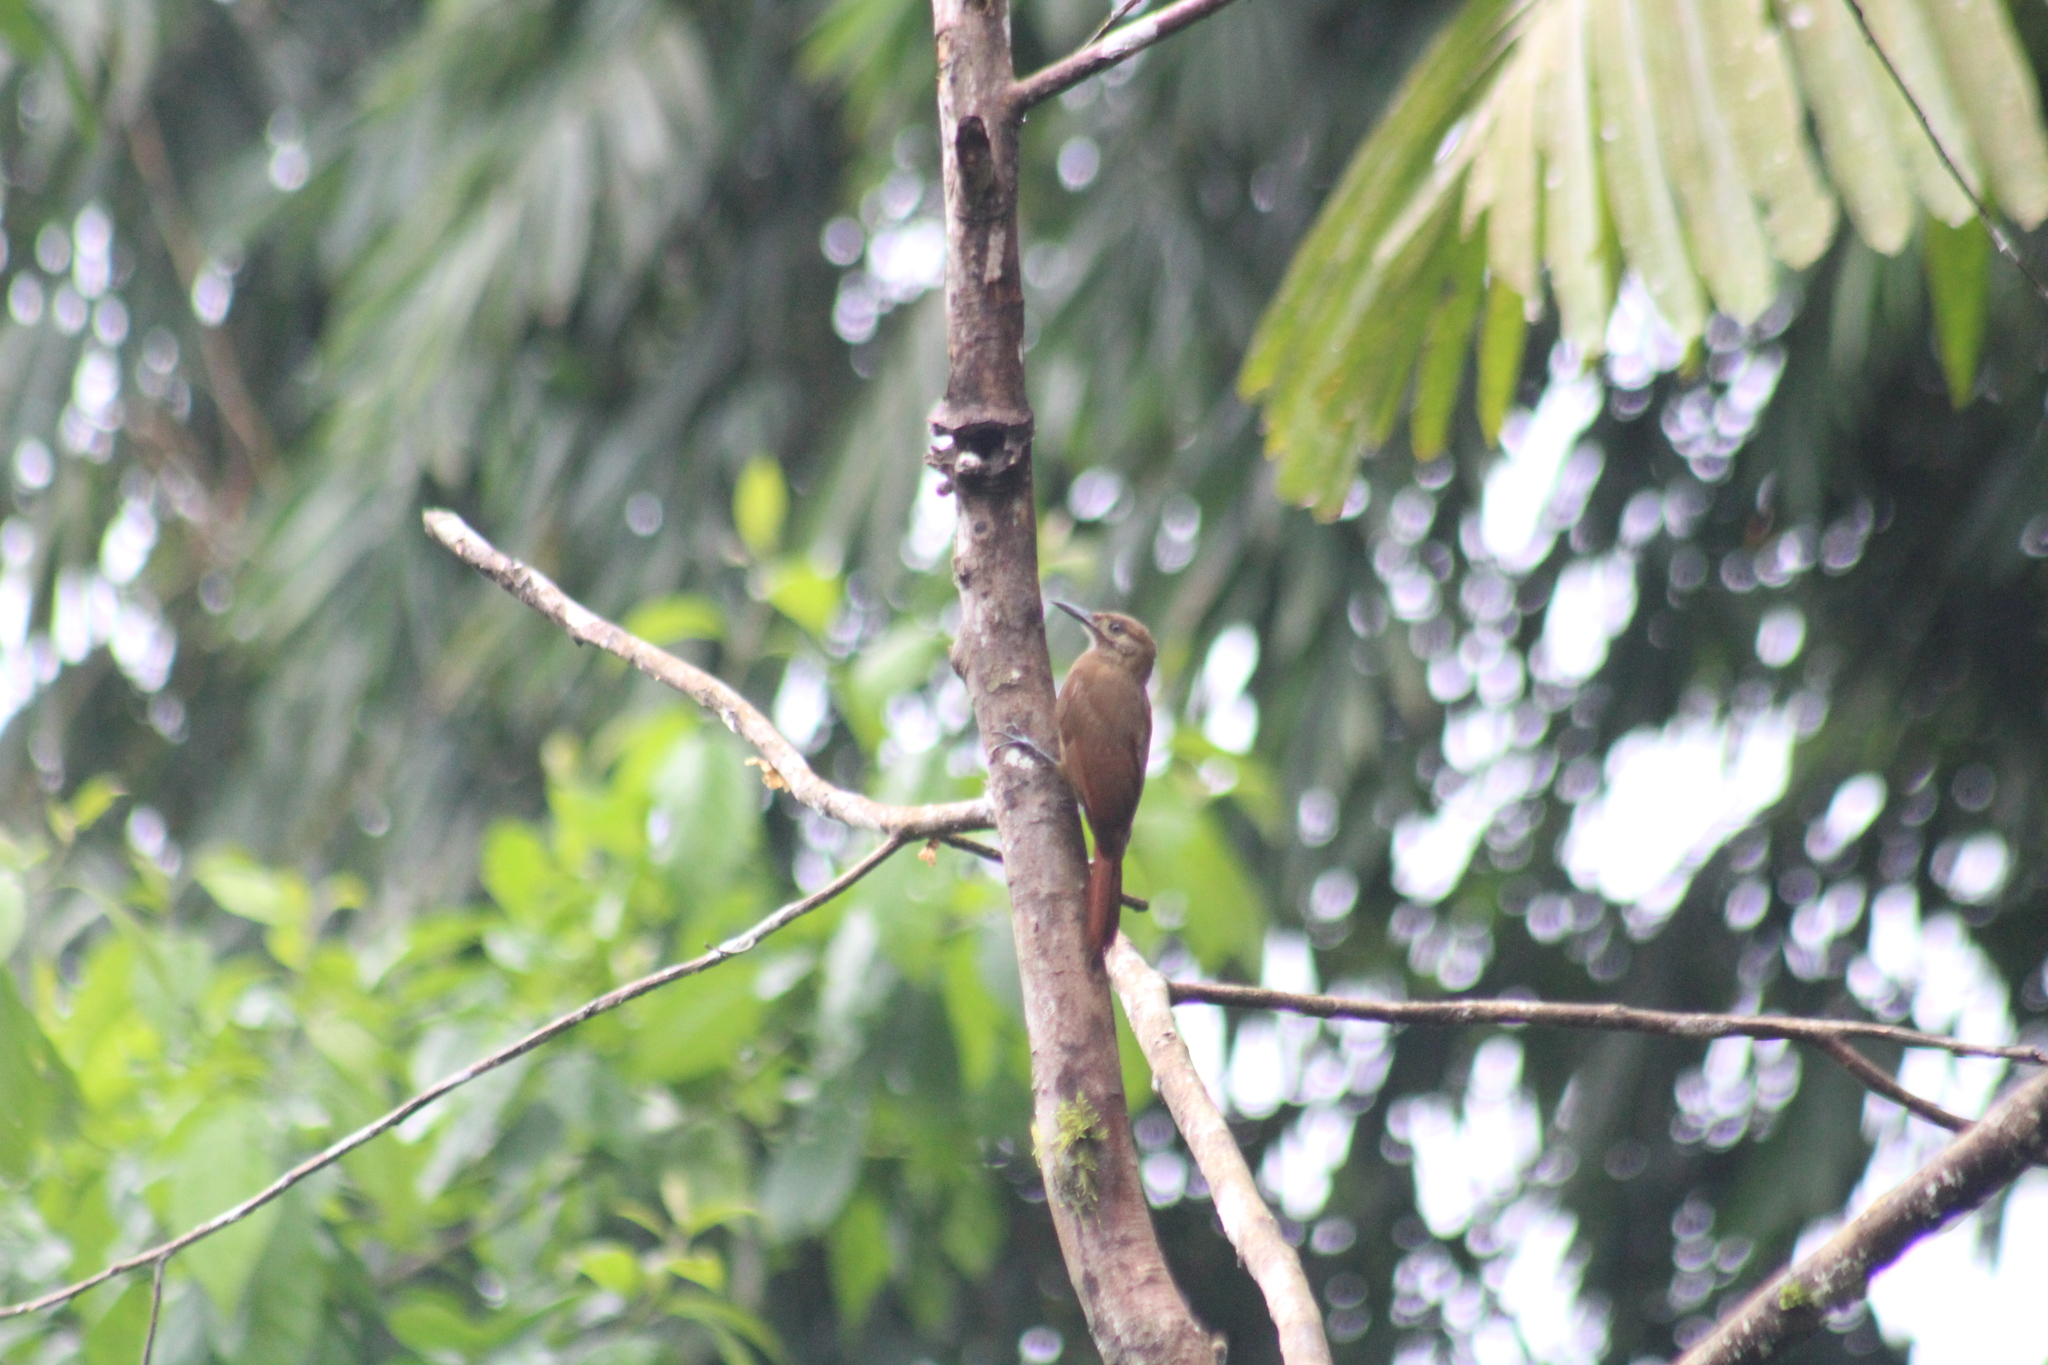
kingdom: Animalia
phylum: Chordata
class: Aves
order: Passeriformes
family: Furnariidae
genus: Dendrocincla
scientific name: Dendrocincla fuliginosa
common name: Plain-brown woodcreeper
